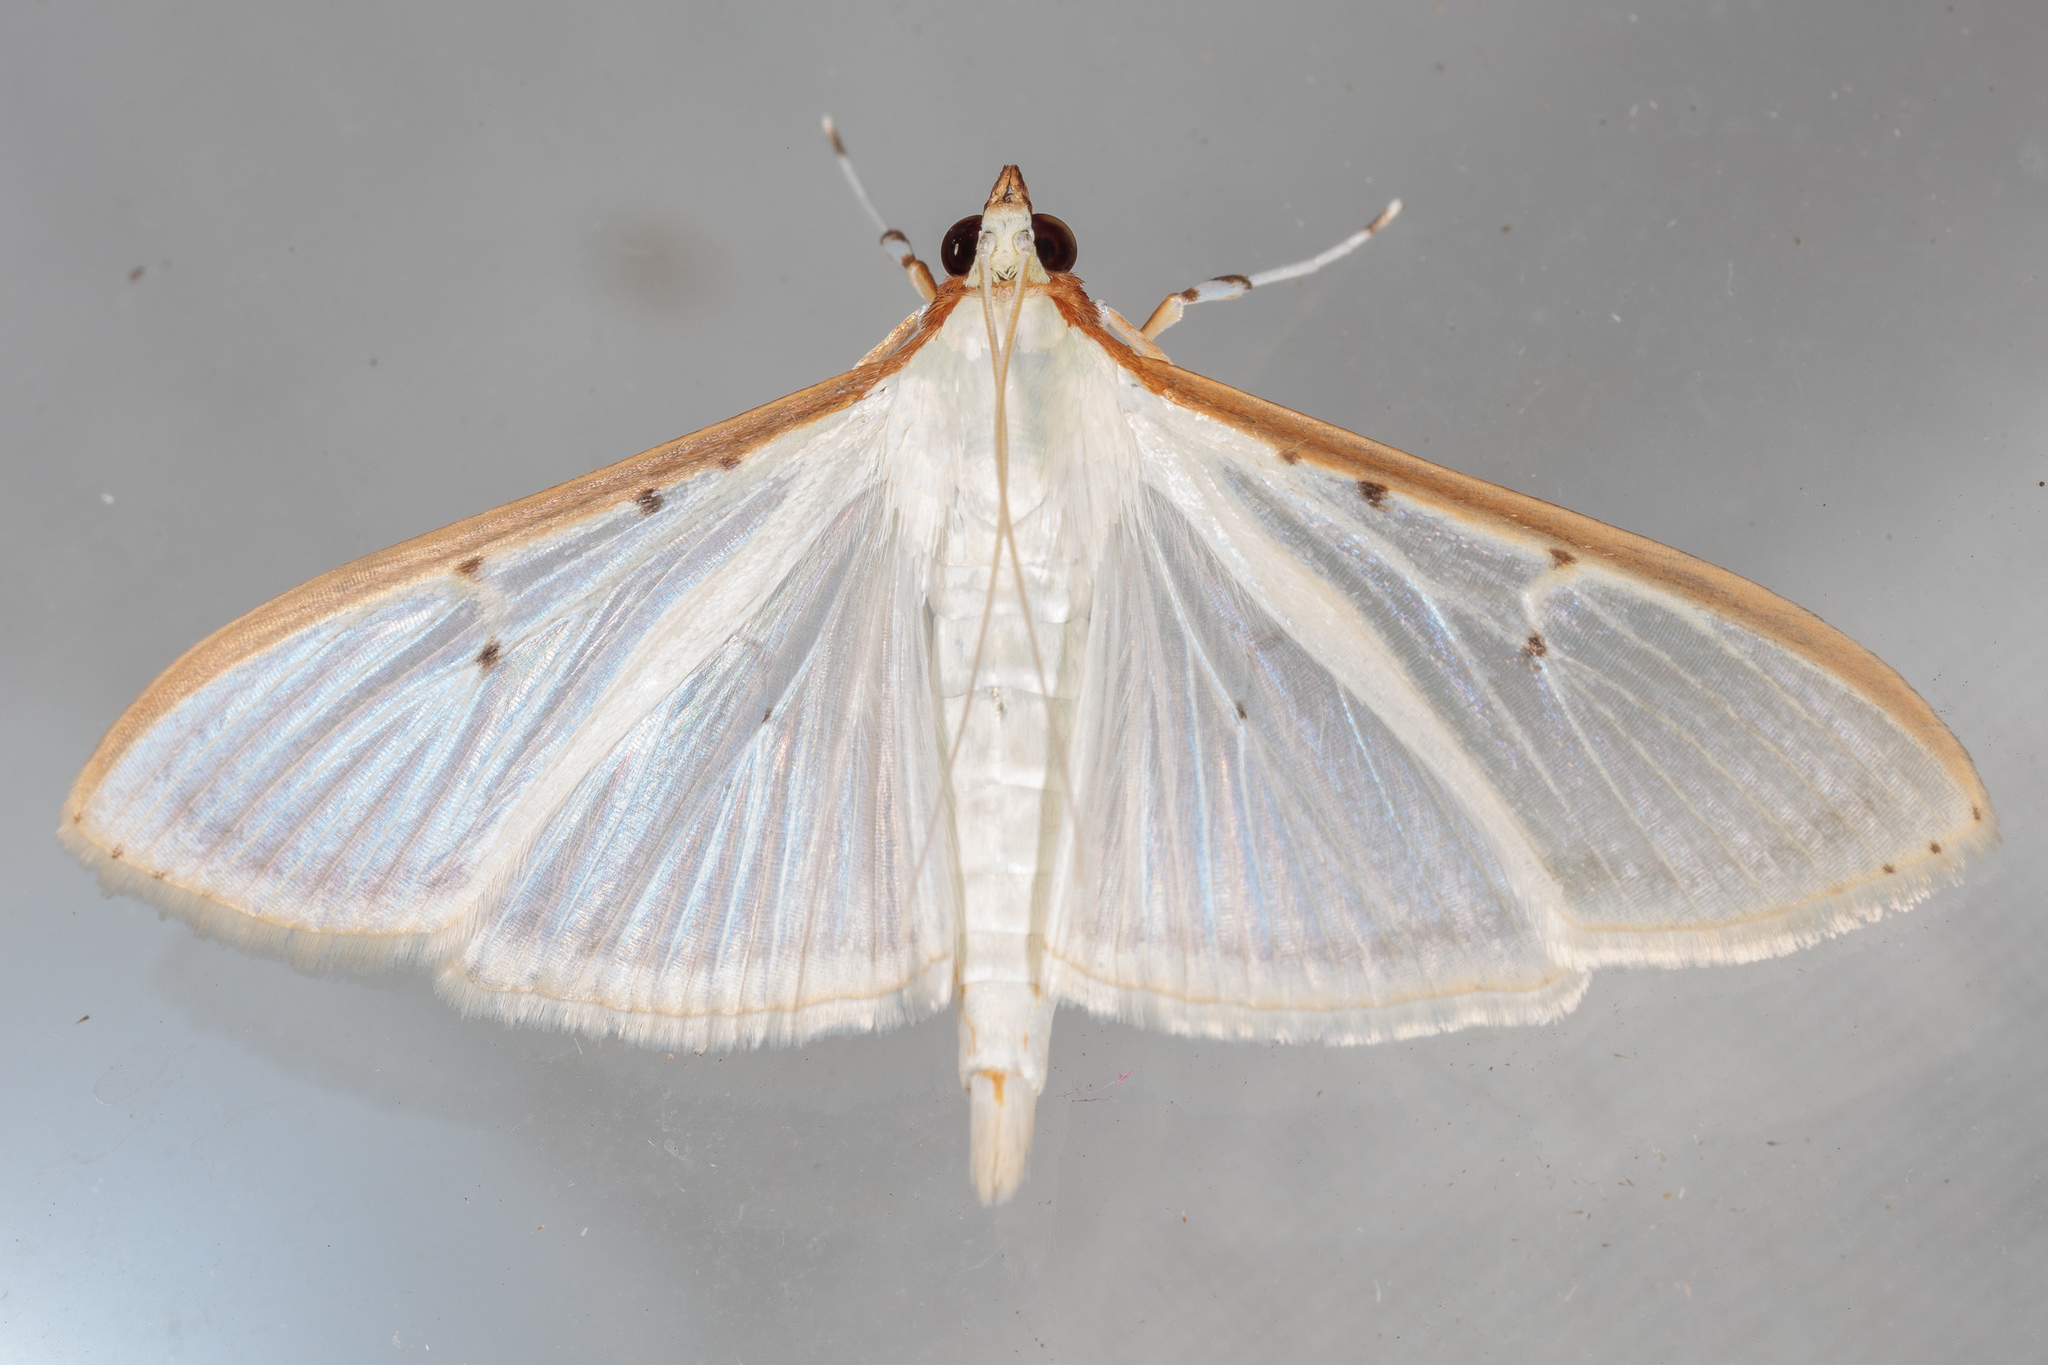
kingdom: Animalia
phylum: Arthropoda
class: Insecta
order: Lepidoptera
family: Crambidae
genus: Palpita
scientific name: Palpita quadristigmalis
